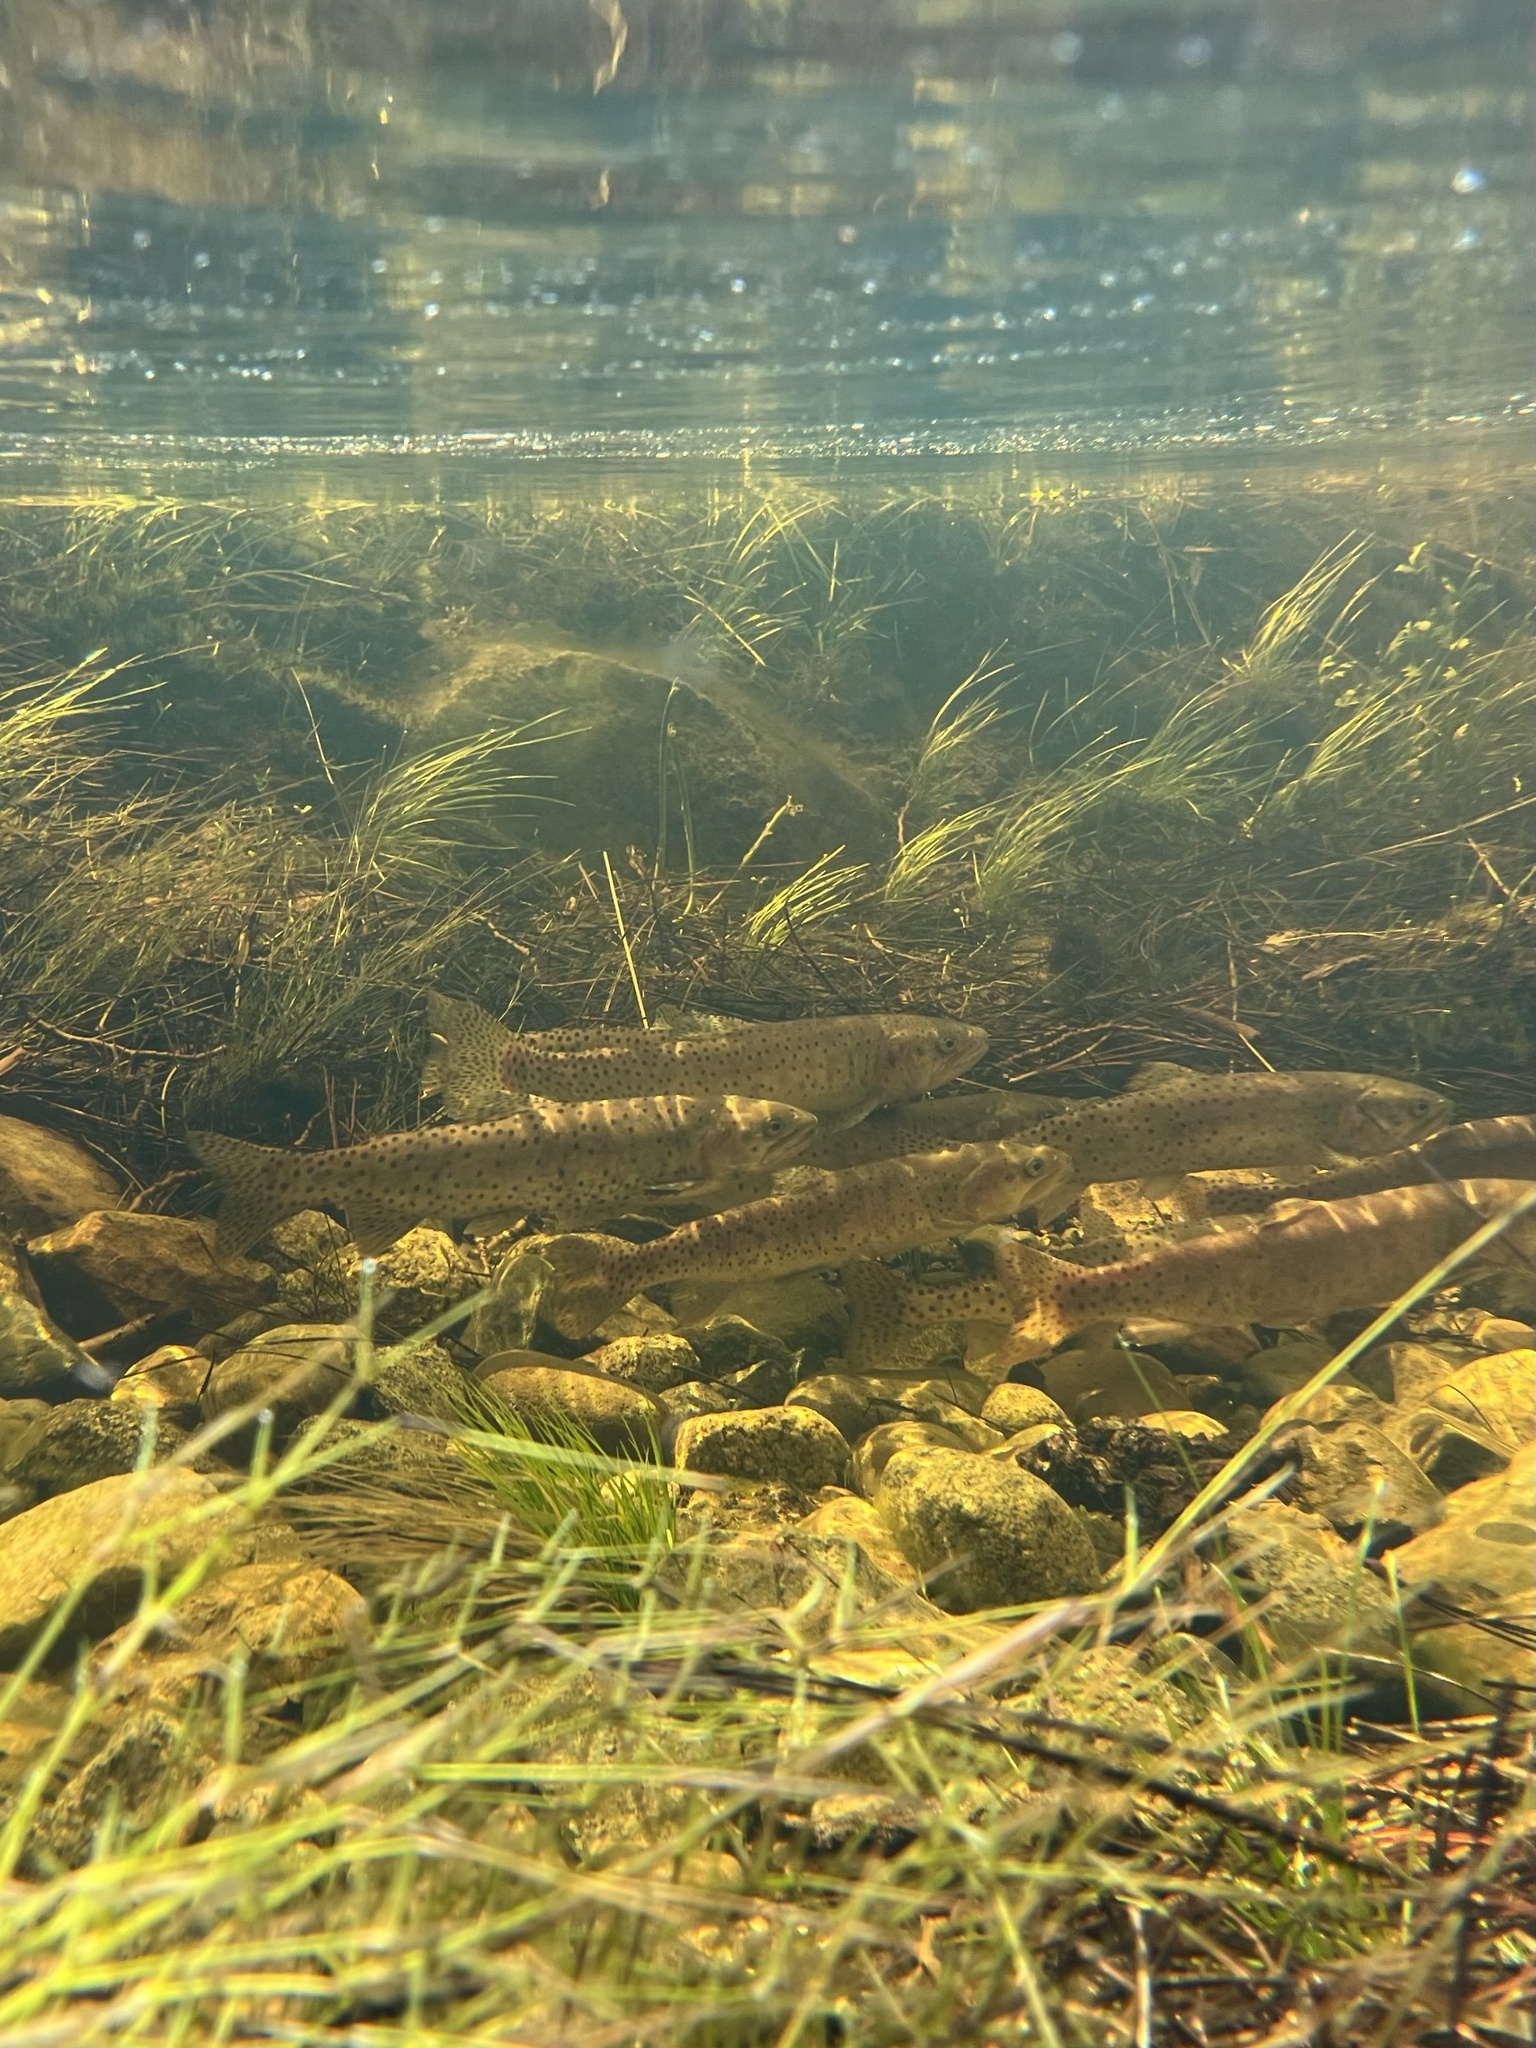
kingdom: Animalia
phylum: Chordata
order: Salmoniformes
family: Salmonidae
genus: Oncorhynchus
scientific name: Oncorhynchus henshawi
